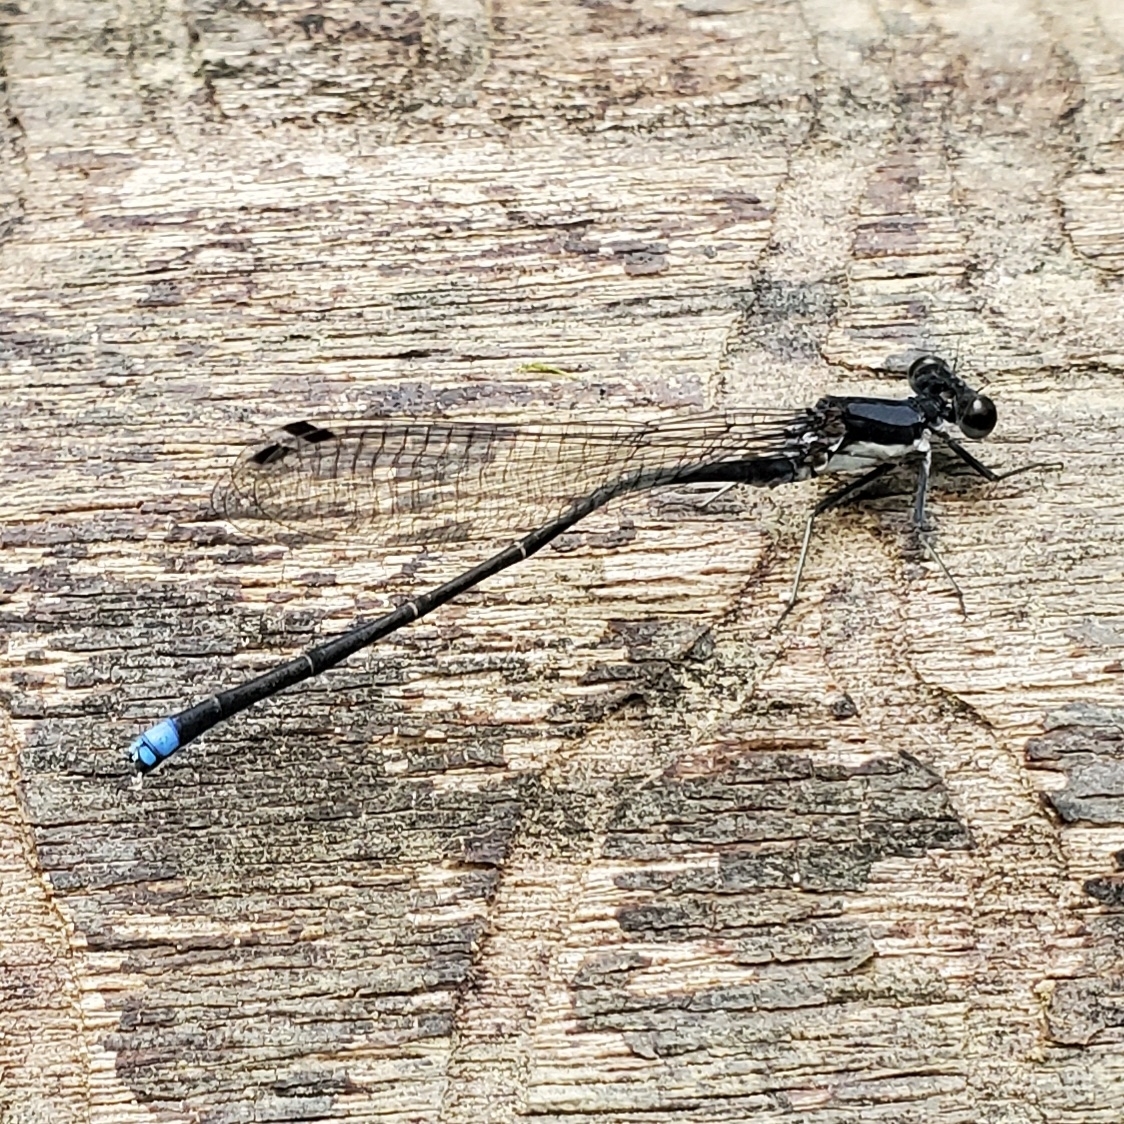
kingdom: Animalia
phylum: Arthropoda
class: Insecta
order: Odonata
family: Coenagrionidae
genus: Argia
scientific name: Argia tibialis
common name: Blue-tipped dancer
